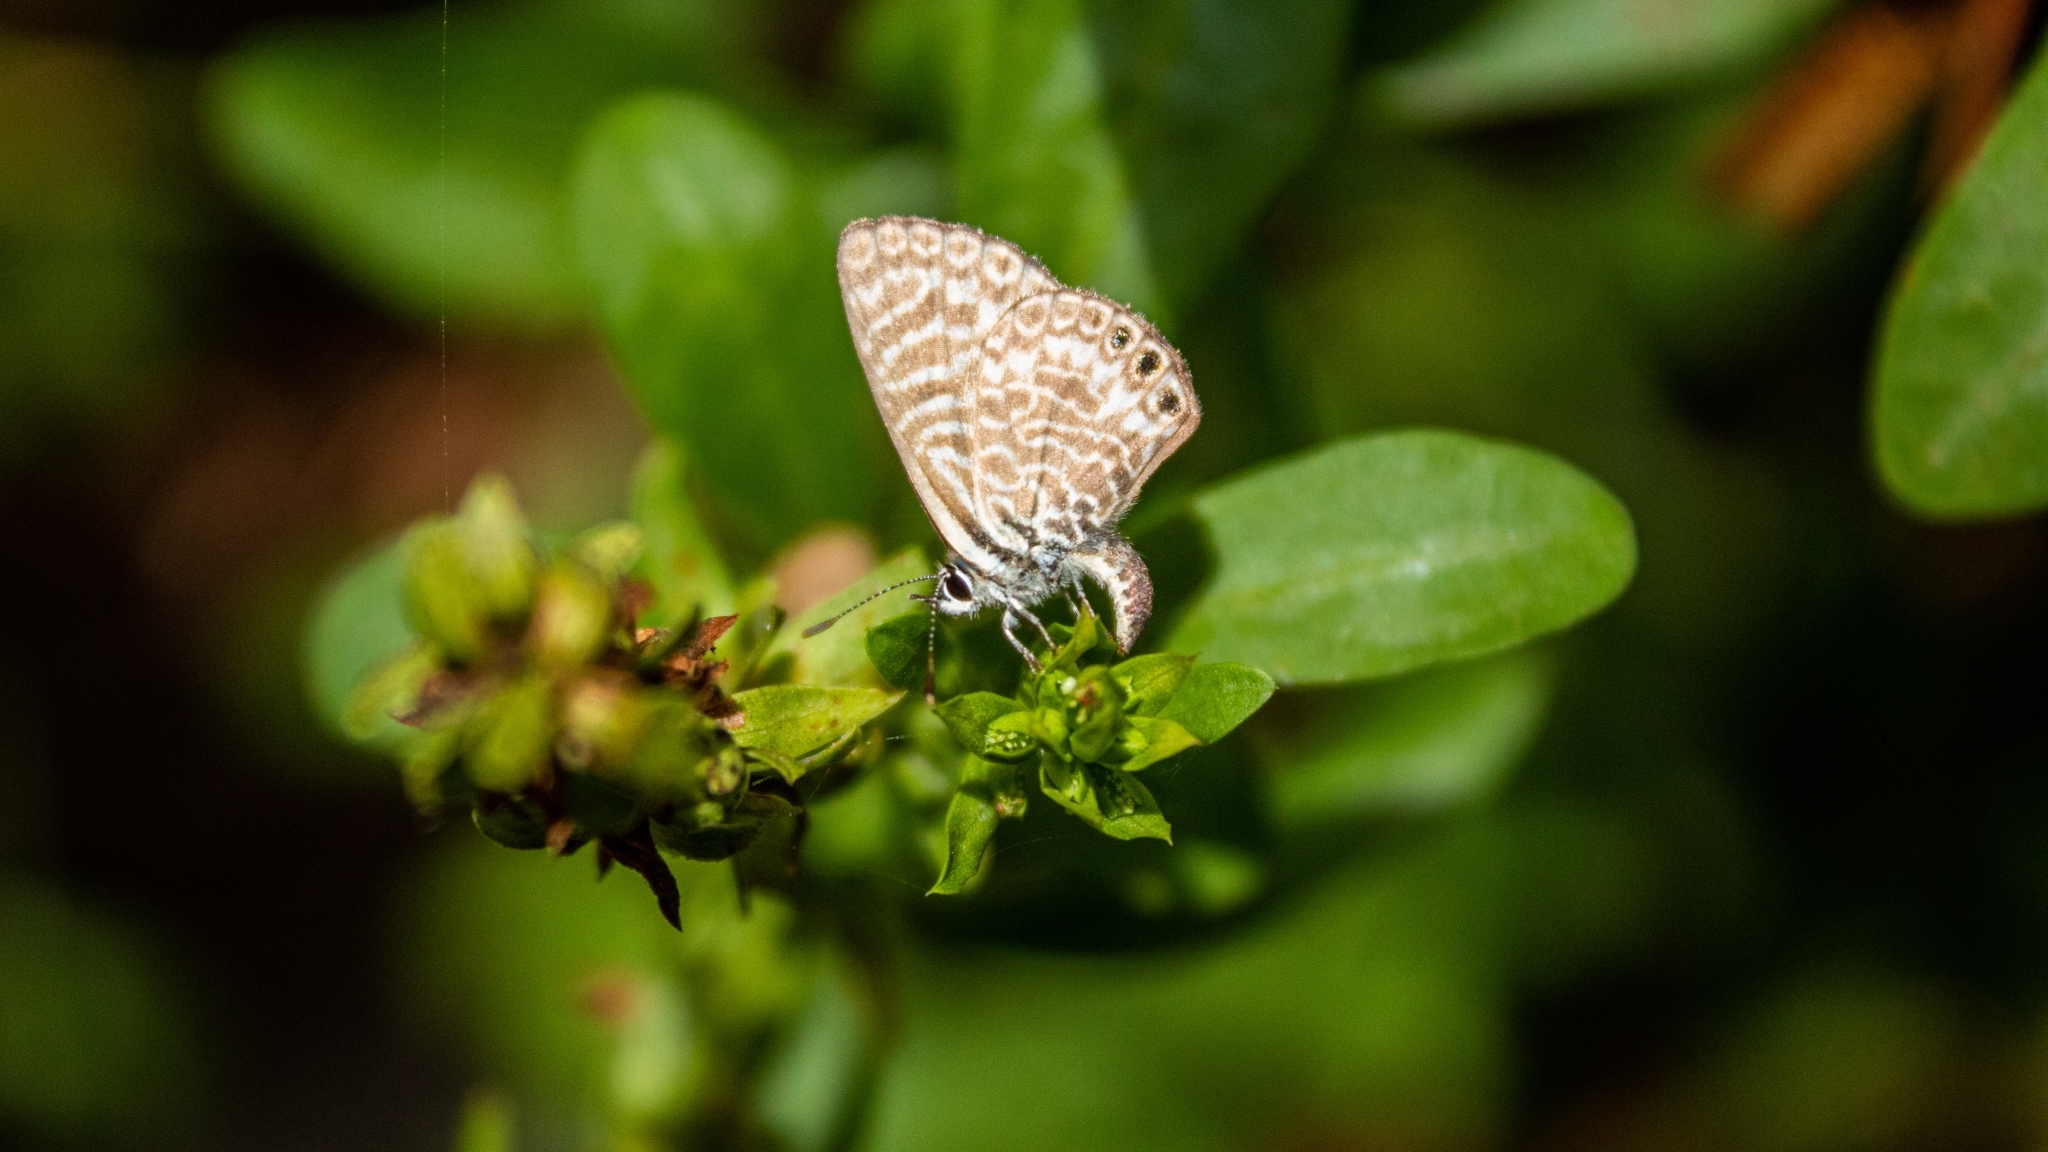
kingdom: Animalia
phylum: Arthropoda
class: Insecta
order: Lepidoptera
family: Lycaenidae
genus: Leptotes
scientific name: Leptotes trigemmatus
